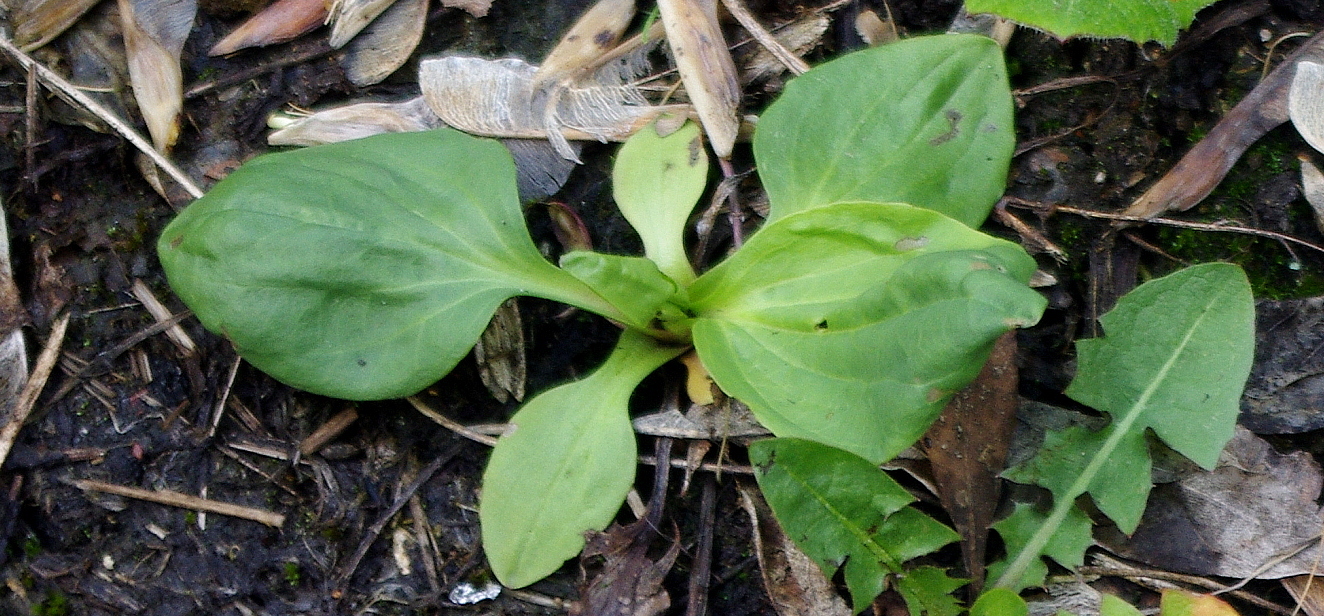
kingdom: Plantae
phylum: Tracheophyta
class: Magnoliopsida
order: Lamiales
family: Plantaginaceae
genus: Plantago
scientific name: Plantago major
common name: Common plantain
